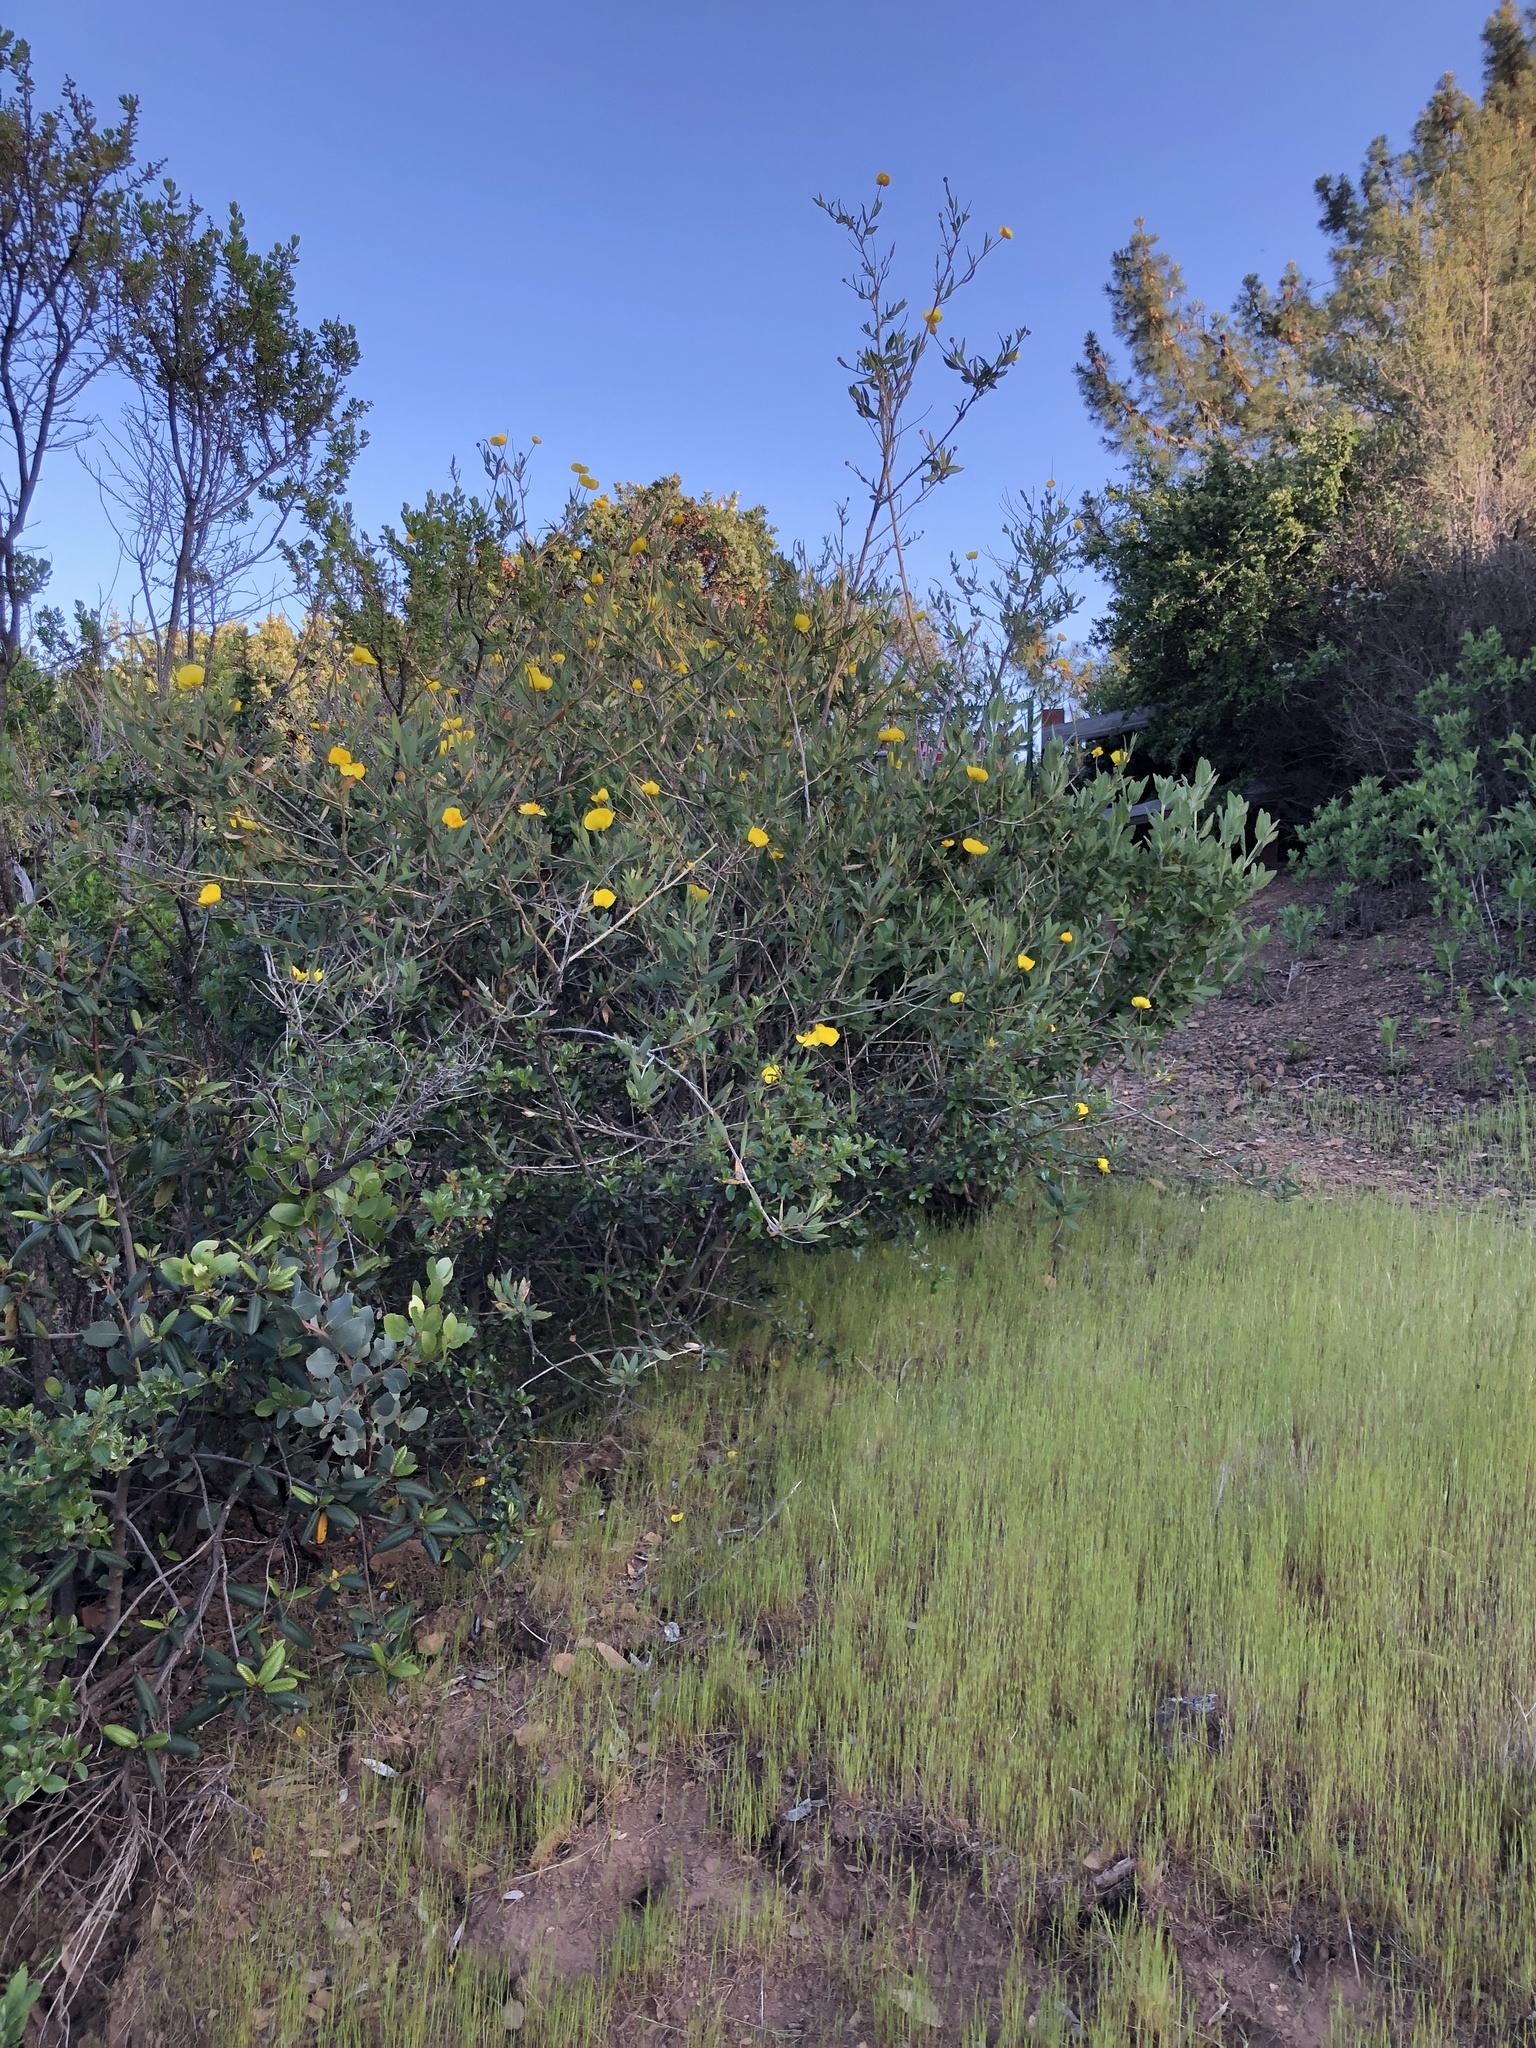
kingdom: Plantae
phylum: Tracheophyta
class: Magnoliopsida
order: Ranunculales
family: Papaveraceae
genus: Dendromecon
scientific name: Dendromecon rigida
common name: Tree poppy
